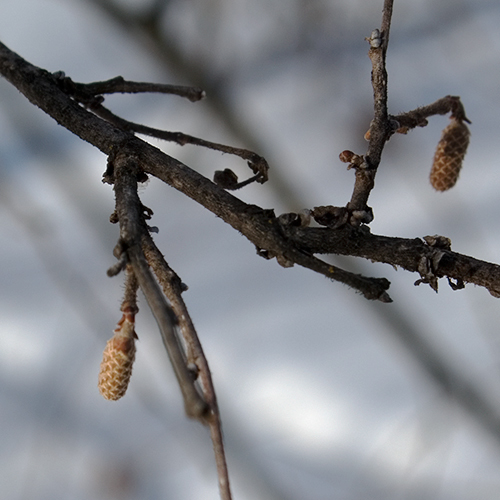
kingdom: Plantae
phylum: Tracheophyta
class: Magnoliopsida
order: Fagales
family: Betulaceae
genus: Corylus
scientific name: Corylus americana
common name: American hazel
